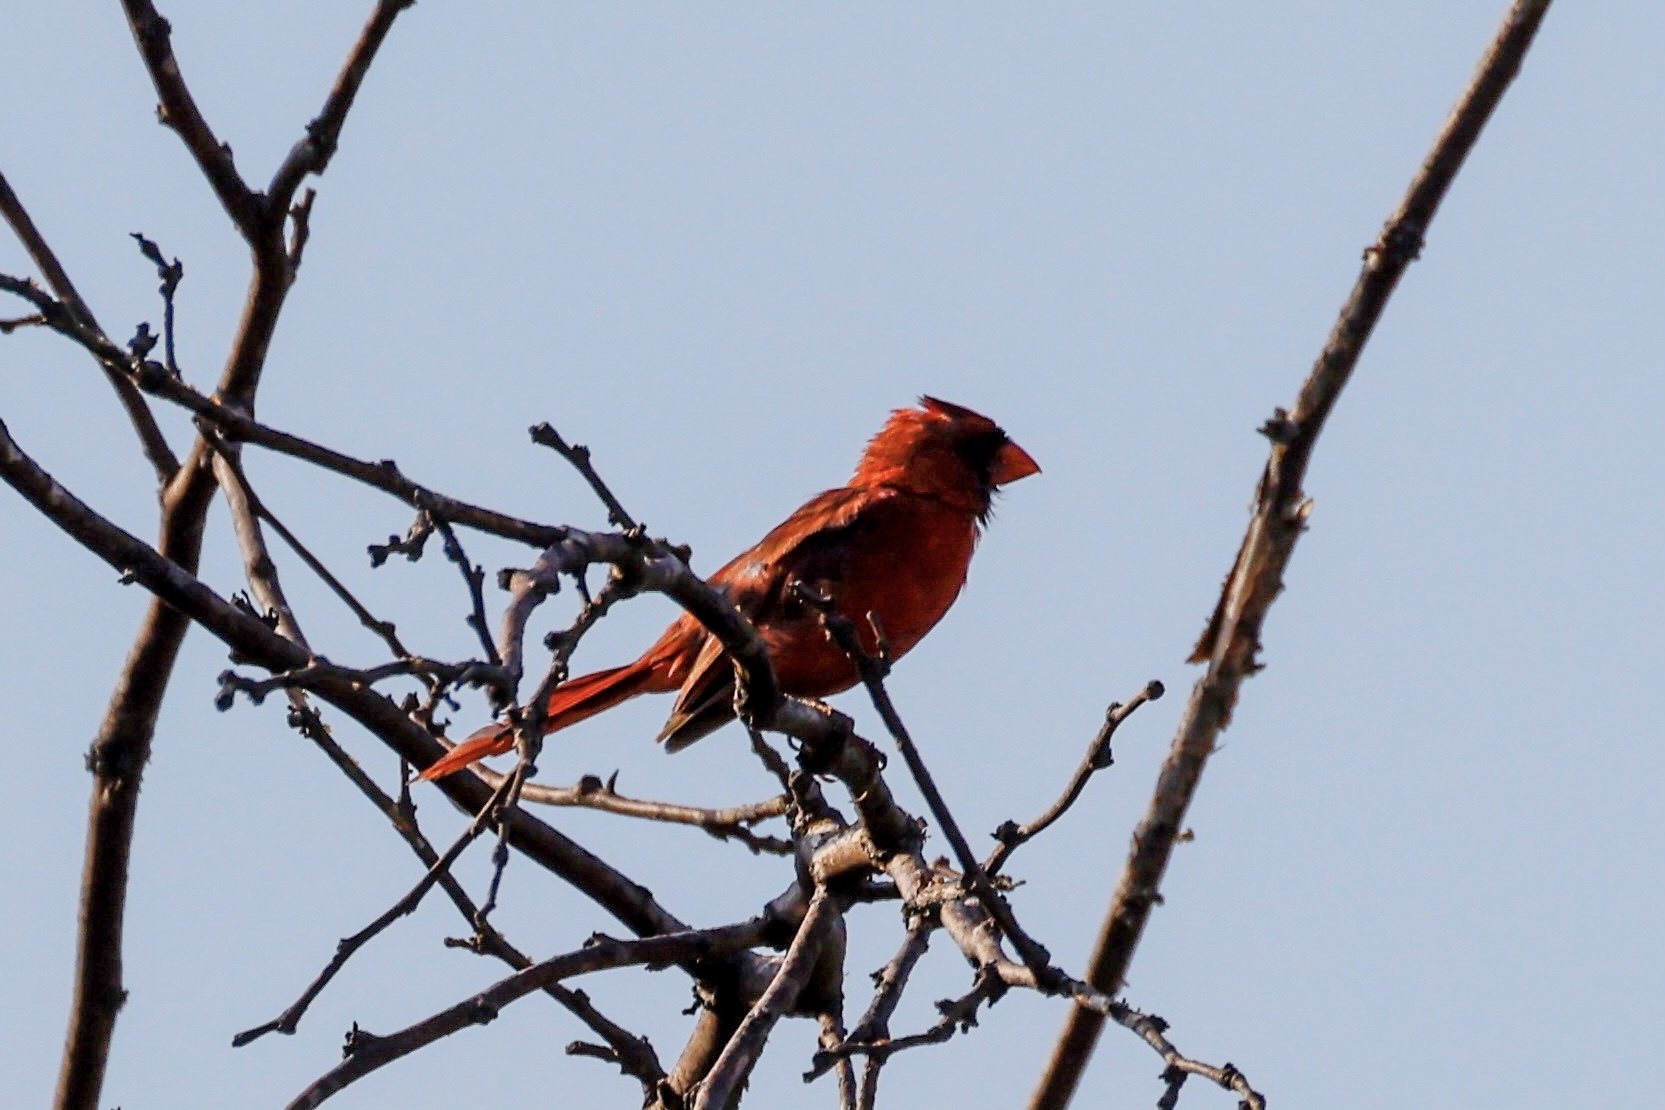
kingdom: Animalia
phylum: Chordata
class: Aves
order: Passeriformes
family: Cardinalidae
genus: Cardinalis
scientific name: Cardinalis cardinalis
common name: Northern cardinal
